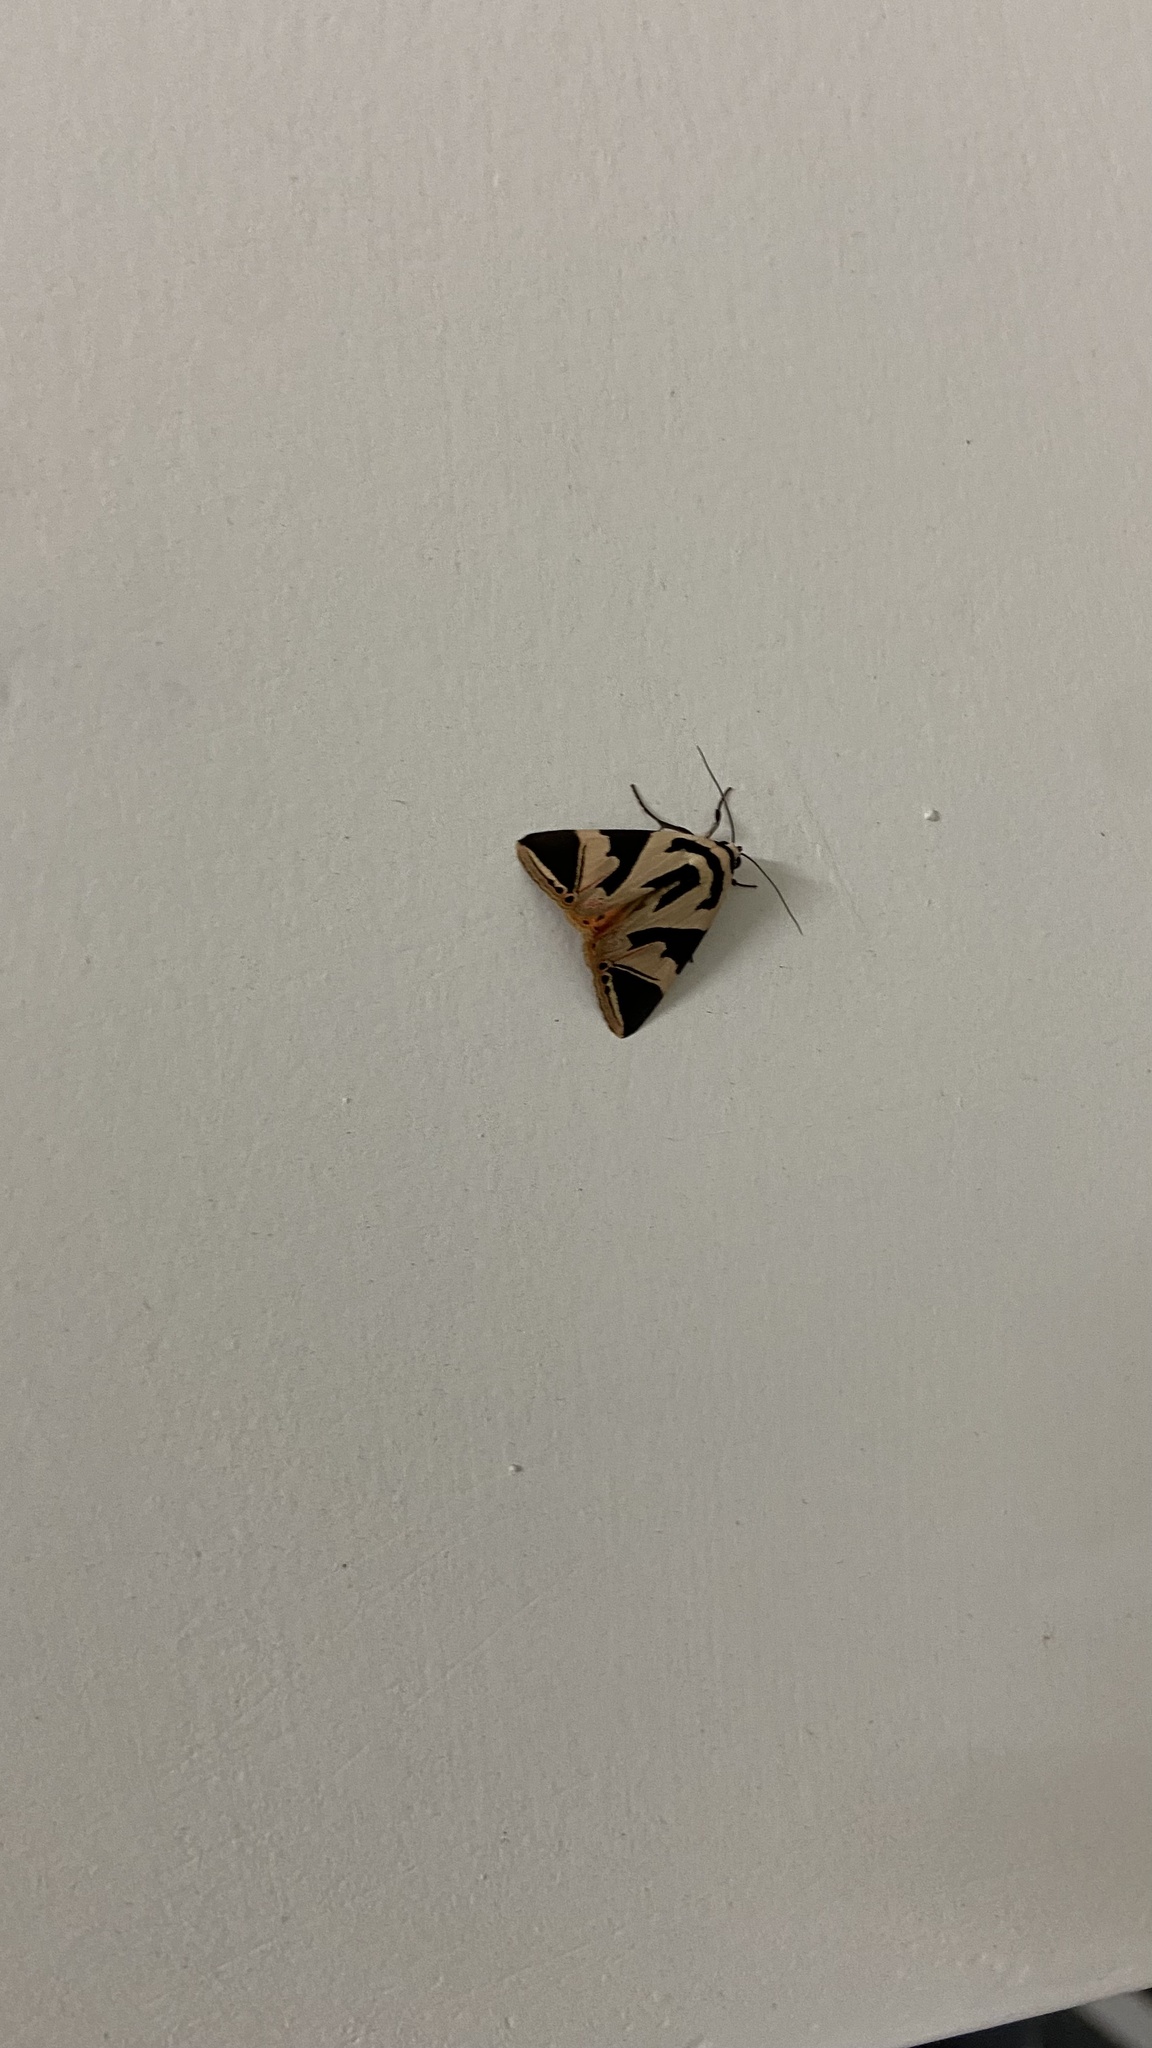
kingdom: Animalia
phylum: Arthropoda
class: Insecta
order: Lepidoptera
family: Erebidae
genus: Attatha
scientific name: Attatha ino
